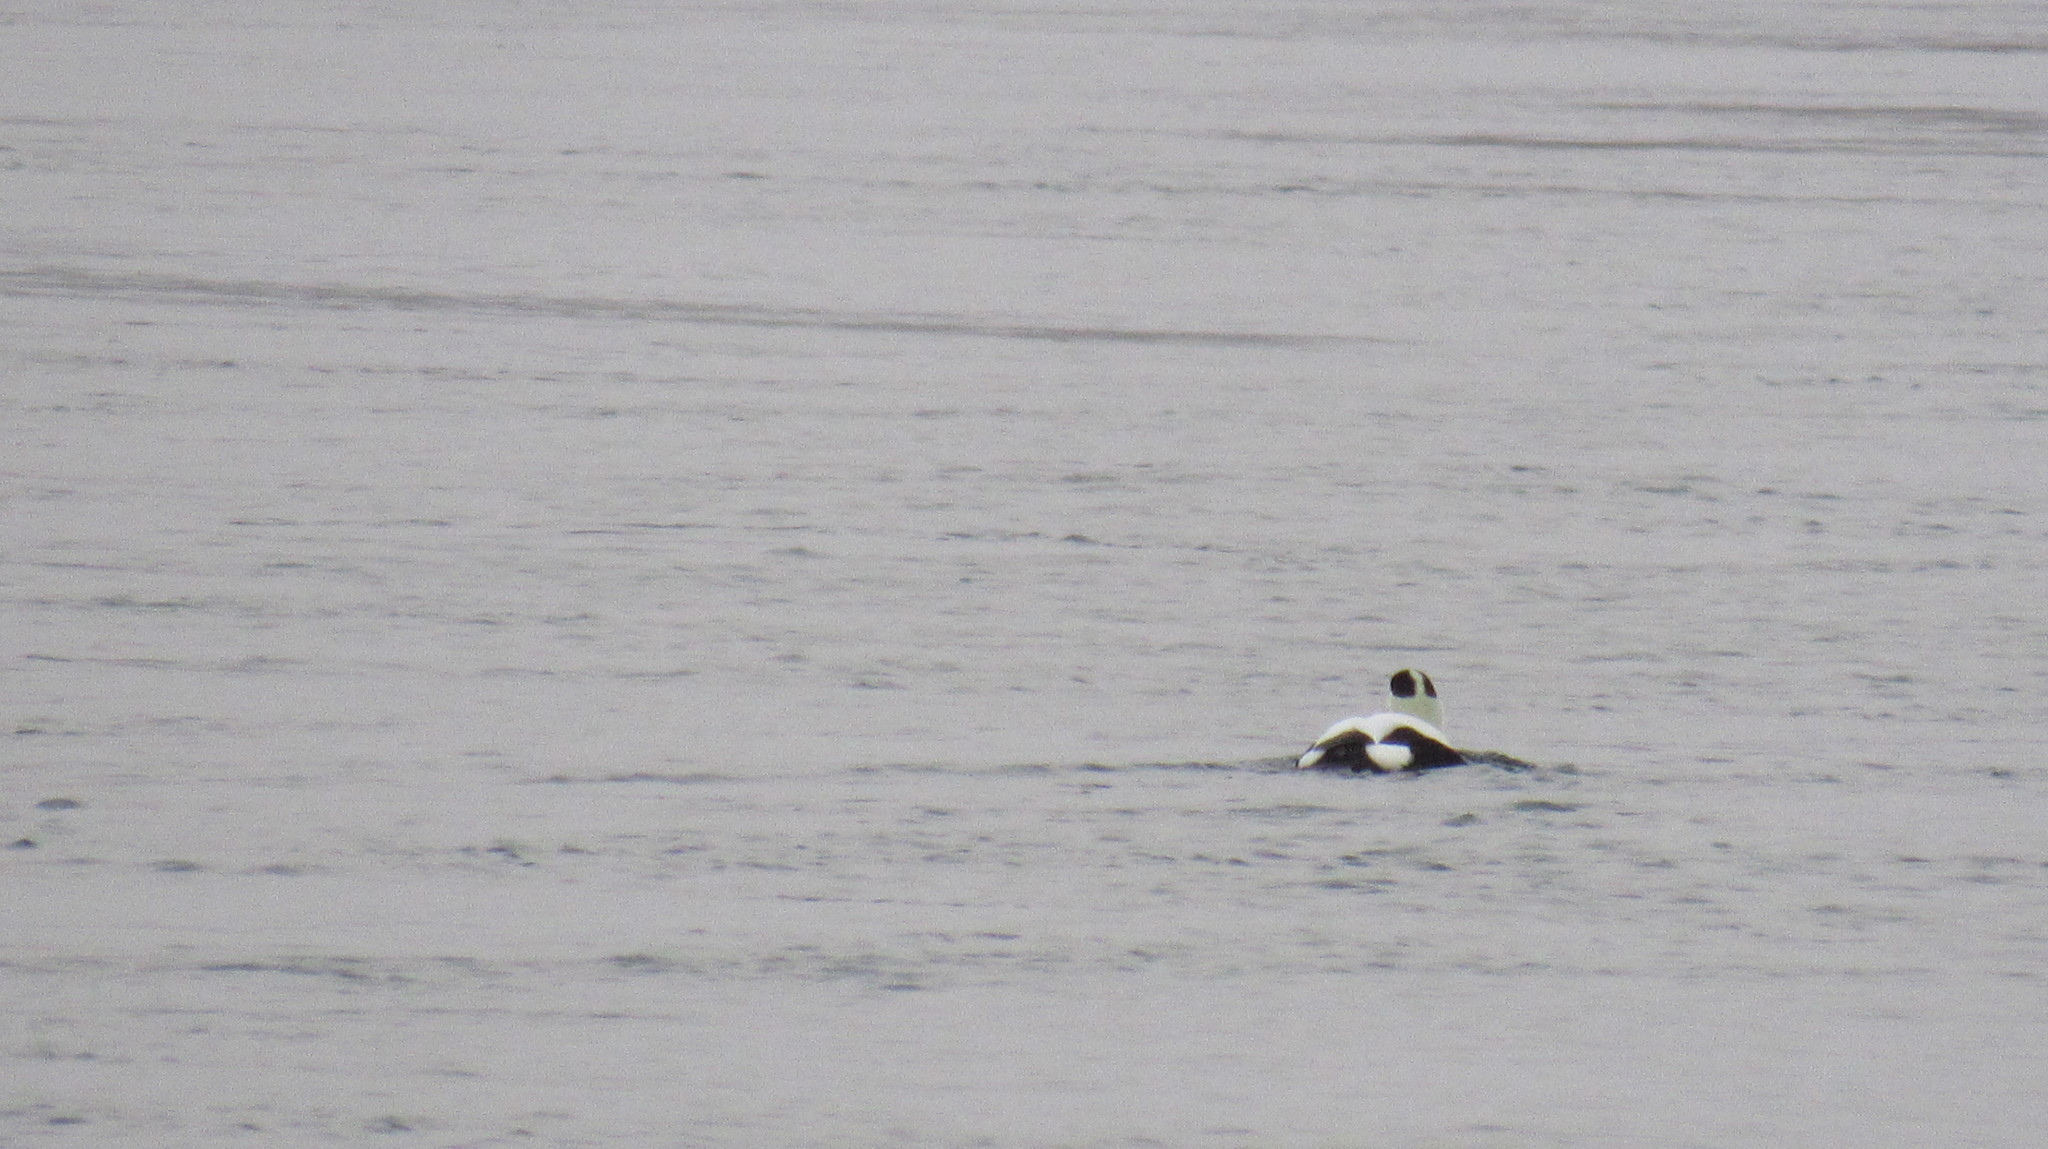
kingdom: Animalia
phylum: Chordata
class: Aves
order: Anseriformes
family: Anatidae
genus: Somateria
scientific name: Somateria mollissima
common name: Common eider
